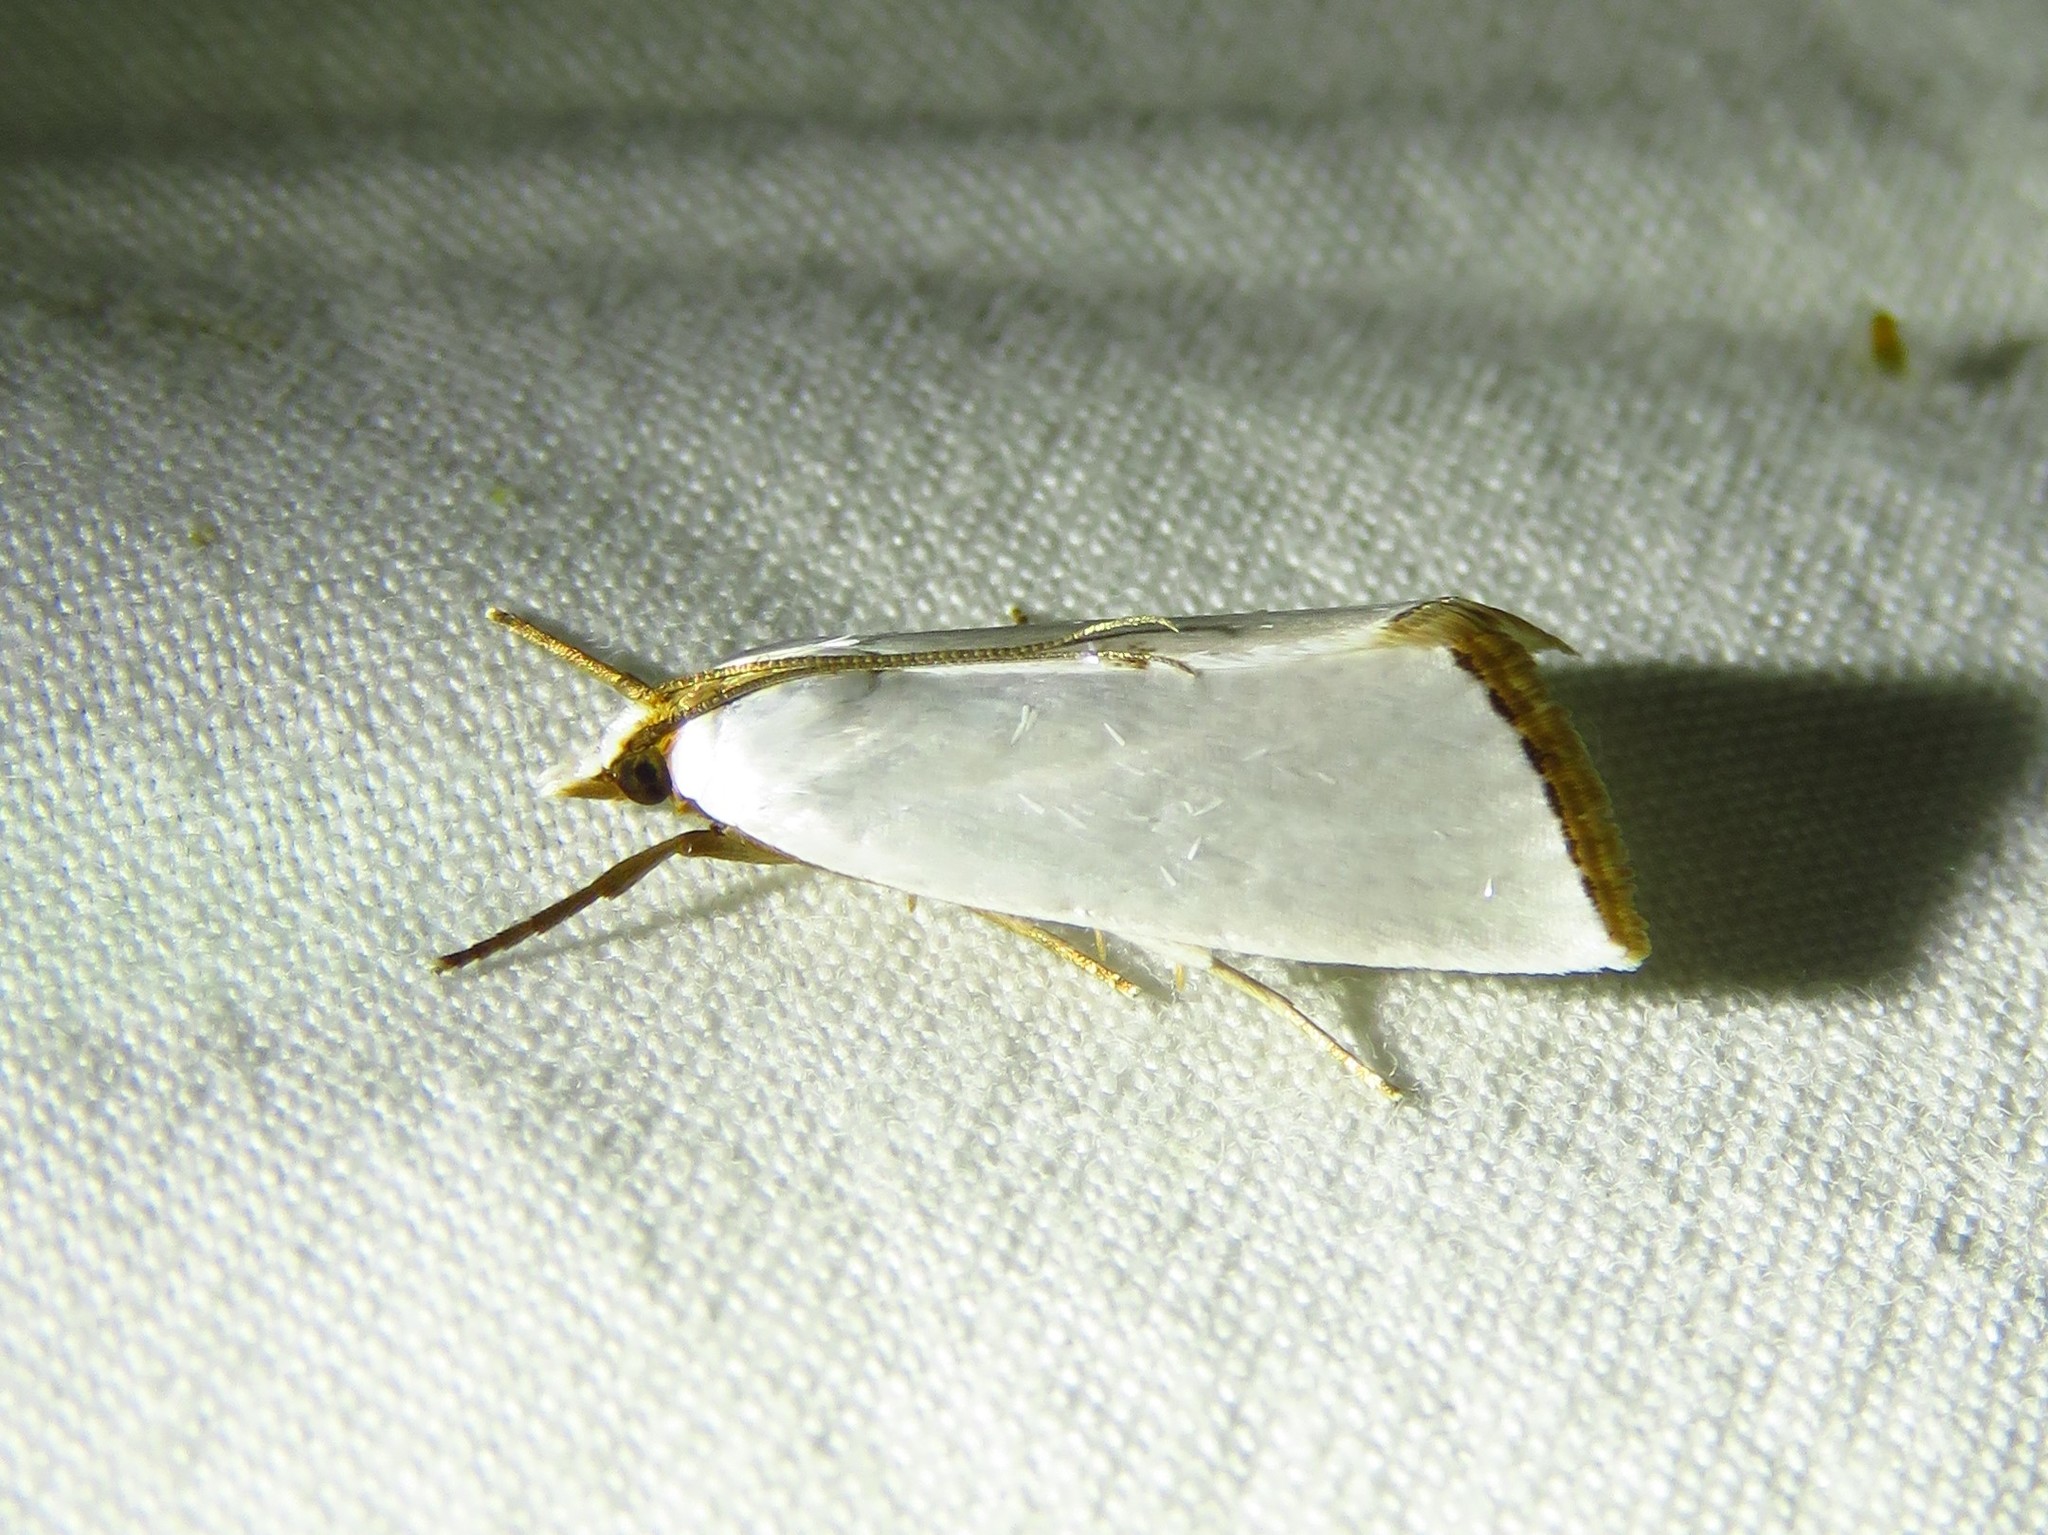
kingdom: Animalia
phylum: Arthropoda
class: Insecta
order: Lepidoptera
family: Crambidae
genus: Argyria
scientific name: Argyria nivalis
